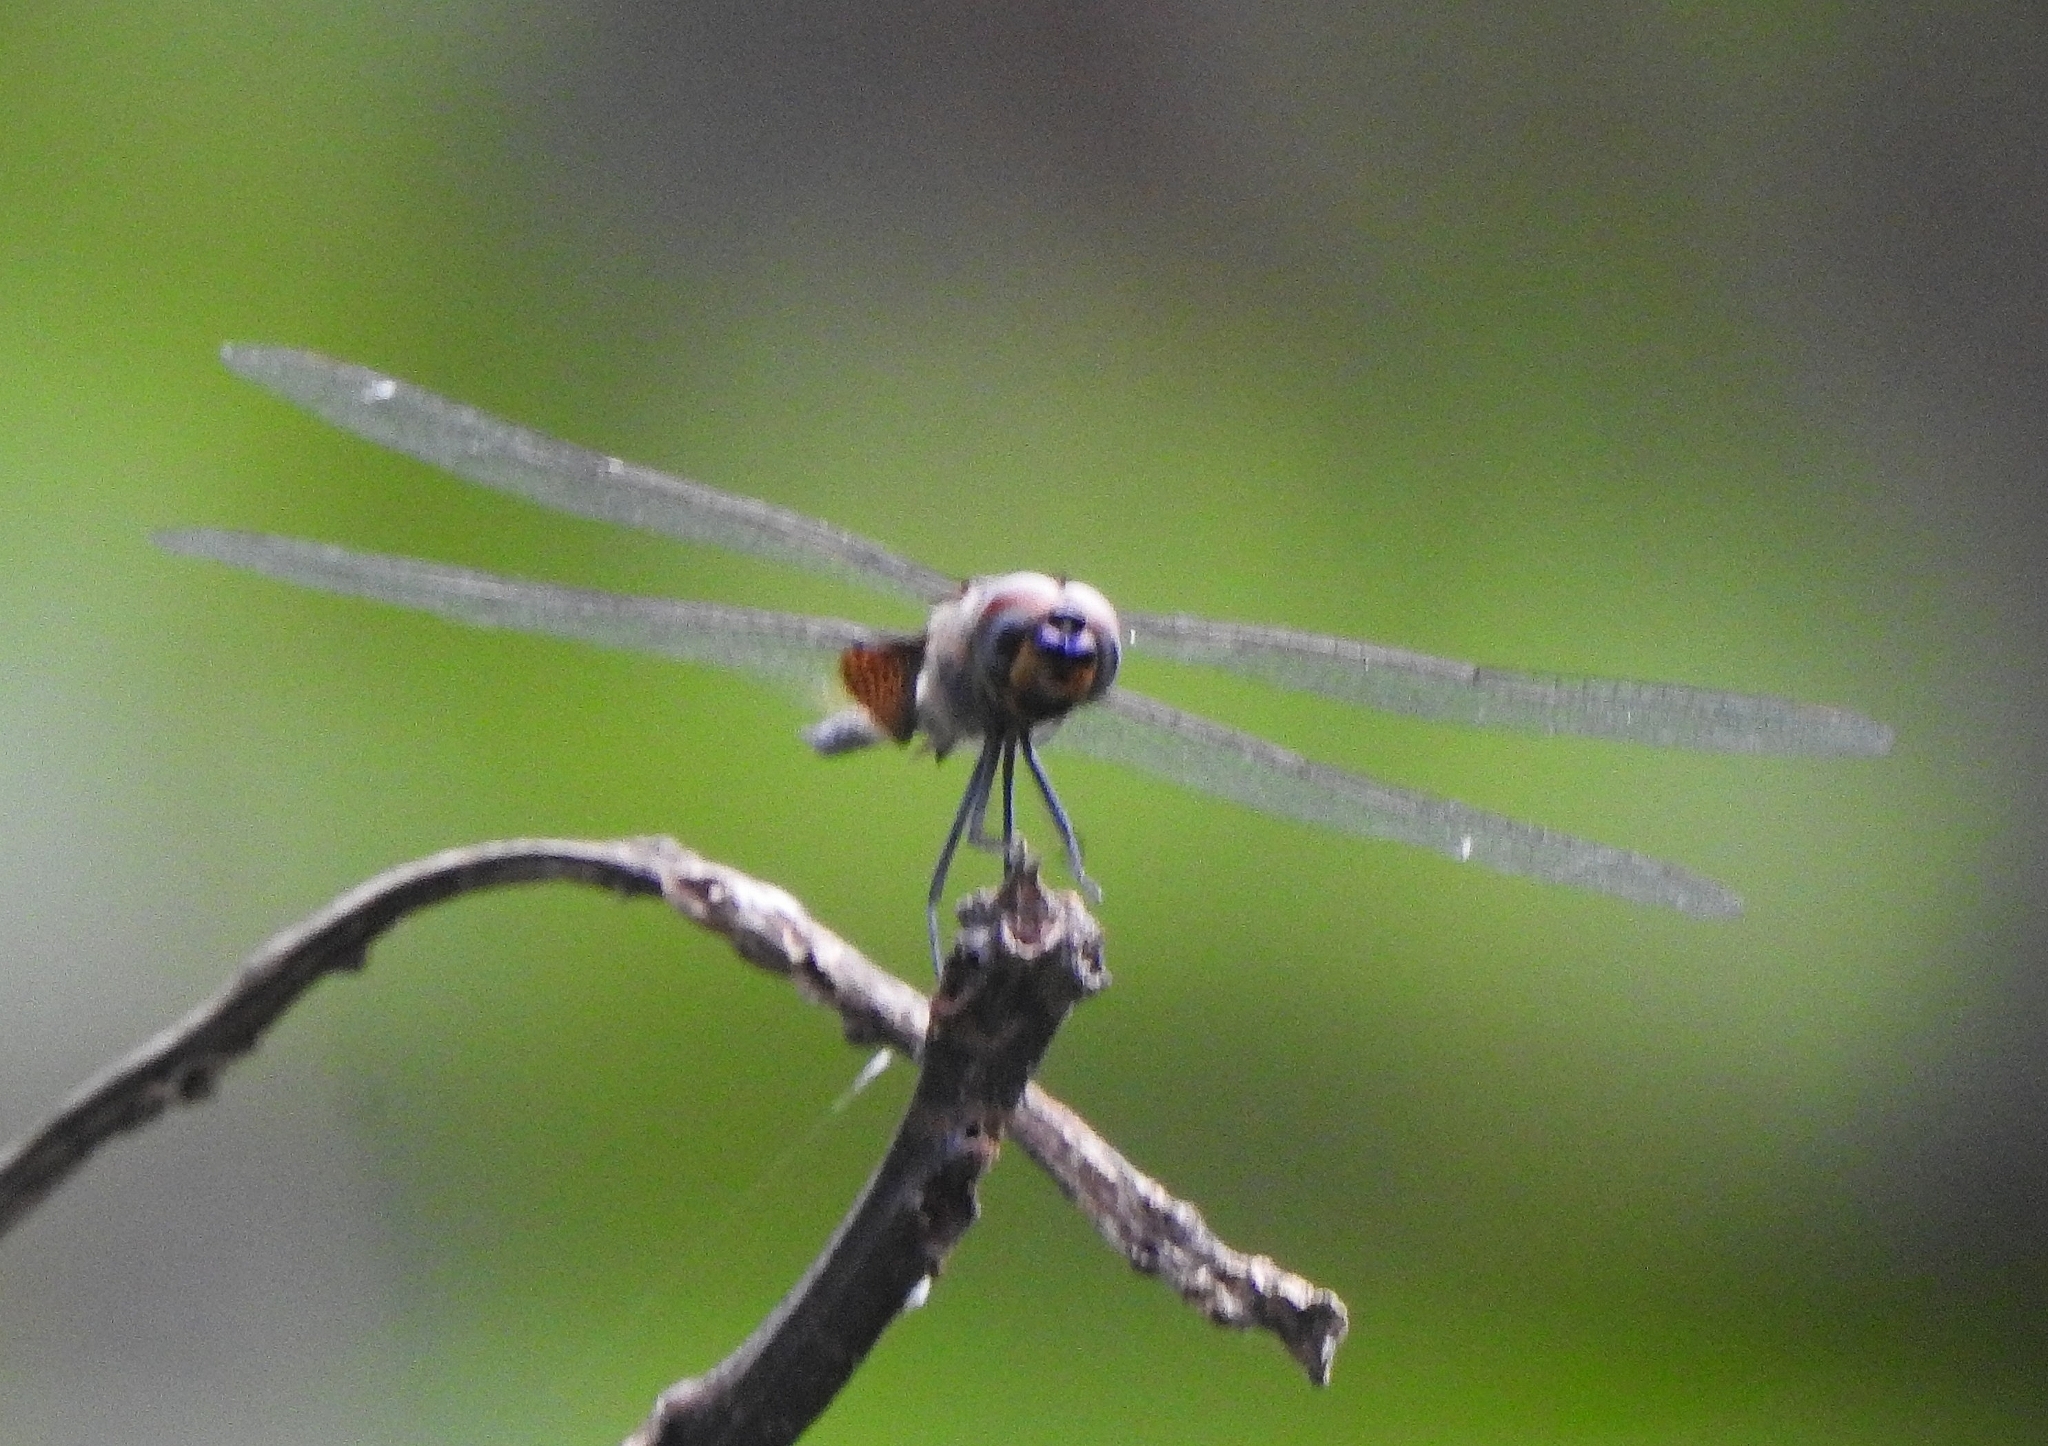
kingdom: Animalia
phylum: Arthropoda
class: Insecta
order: Odonata
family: Libellulidae
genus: Tramea
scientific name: Tramea limbata
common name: Ferruginous glider
